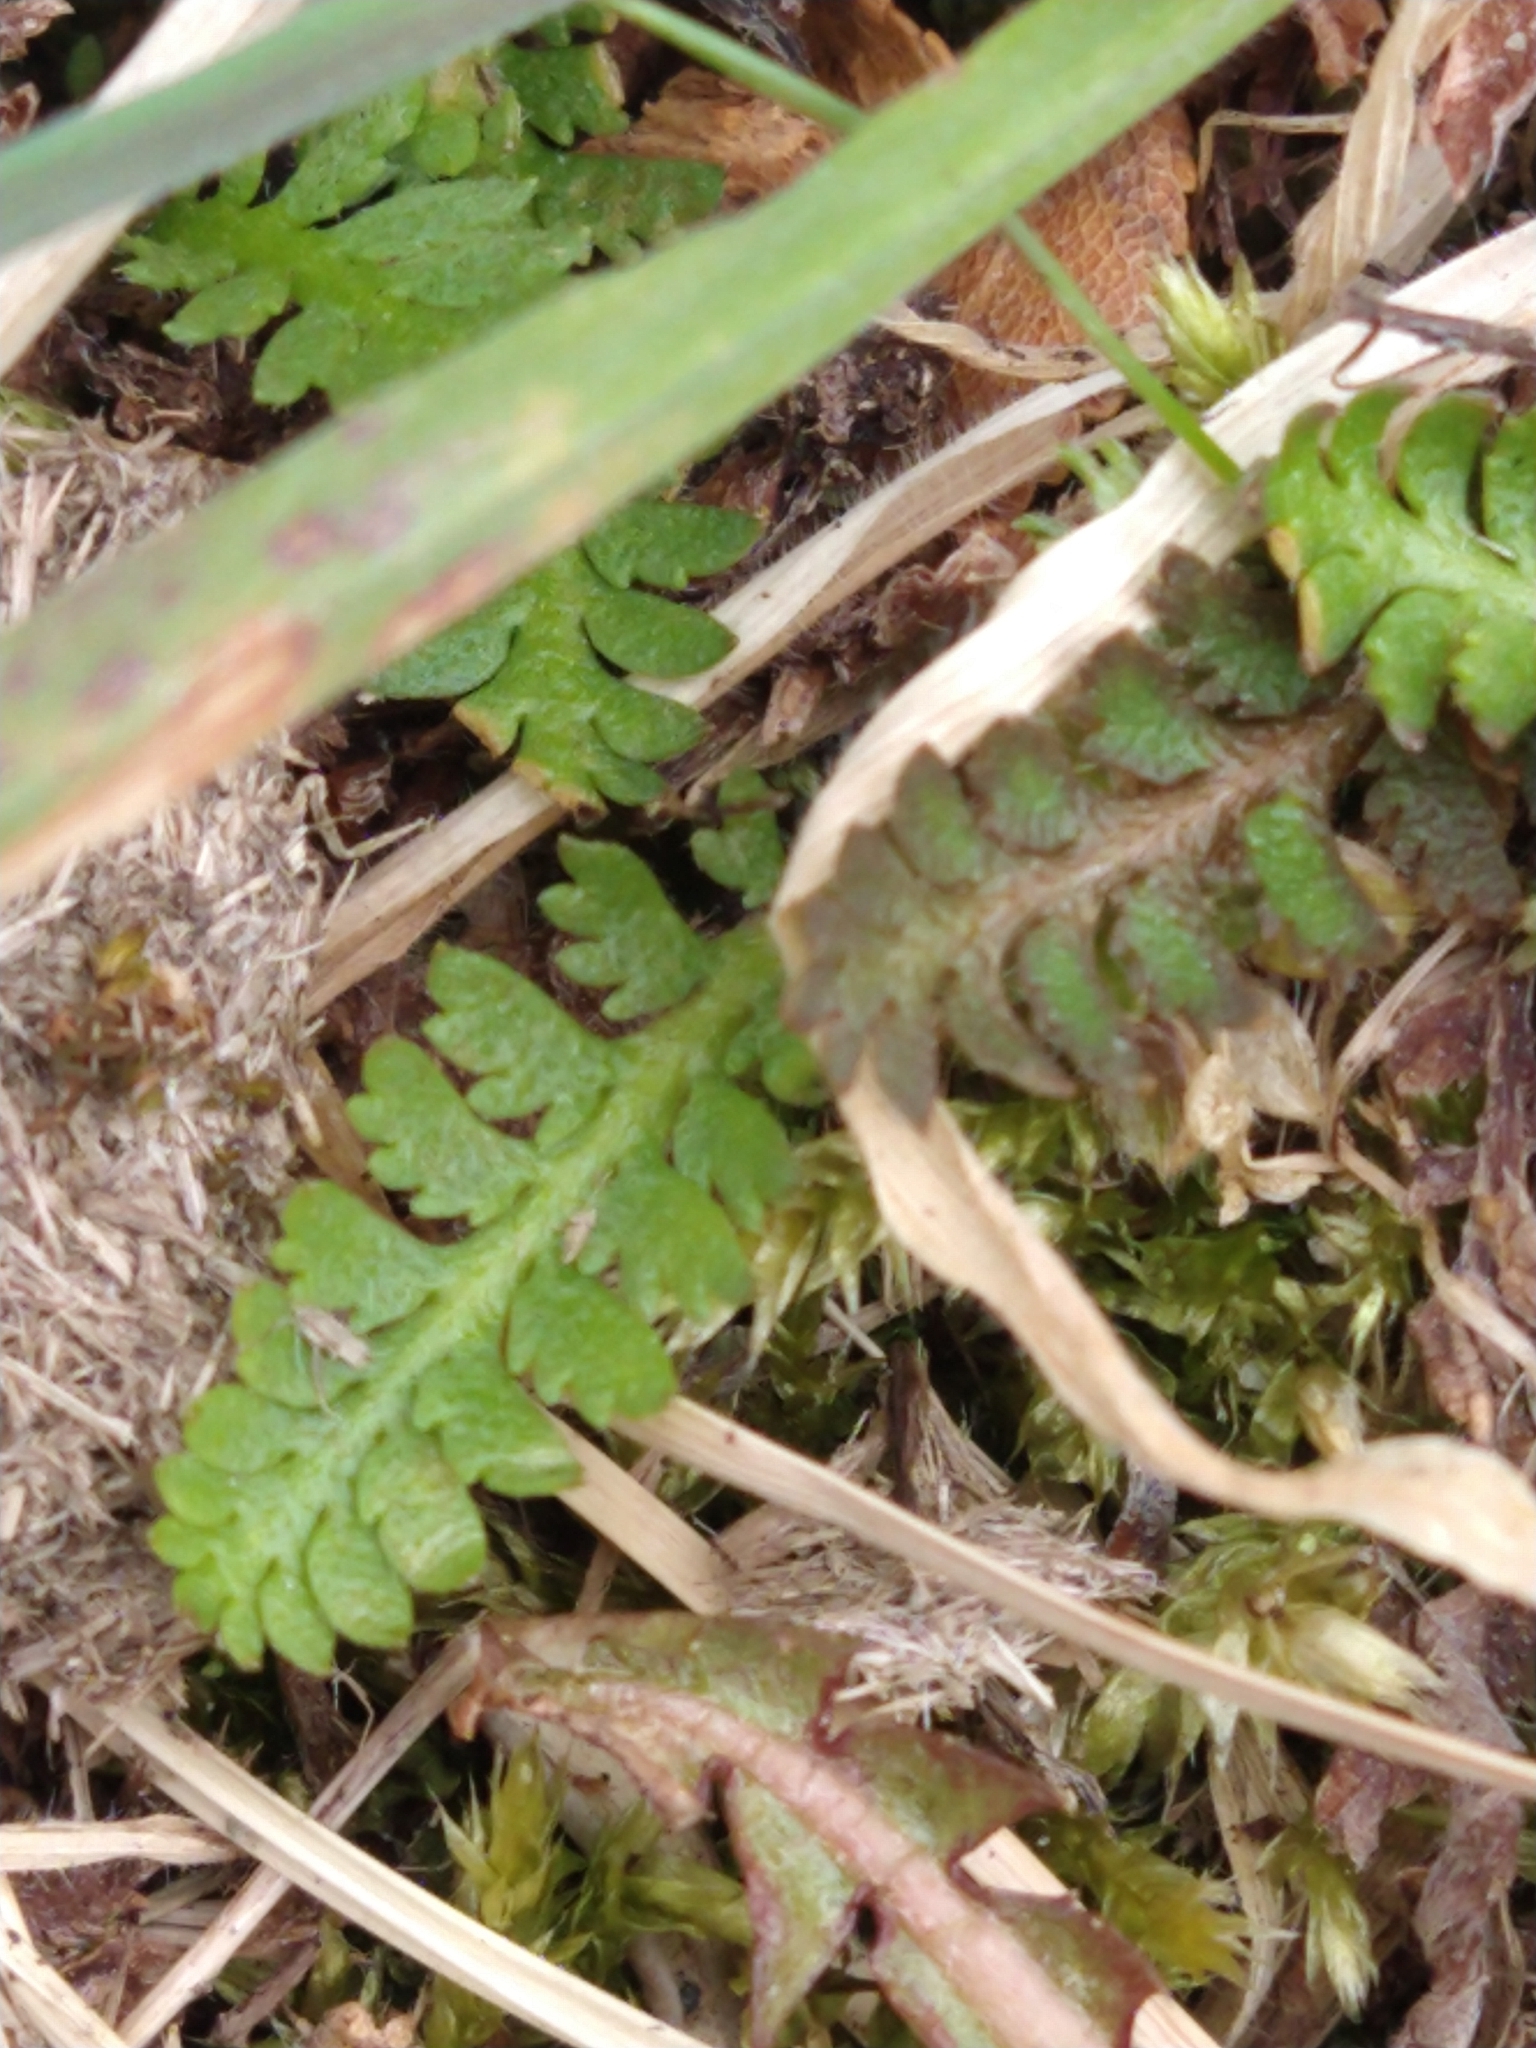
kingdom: Plantae
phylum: Tracheophyta
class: Magnoliopsida
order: Asterales
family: Asteraceae
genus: Leptinella
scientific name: Leptinella scariosa
